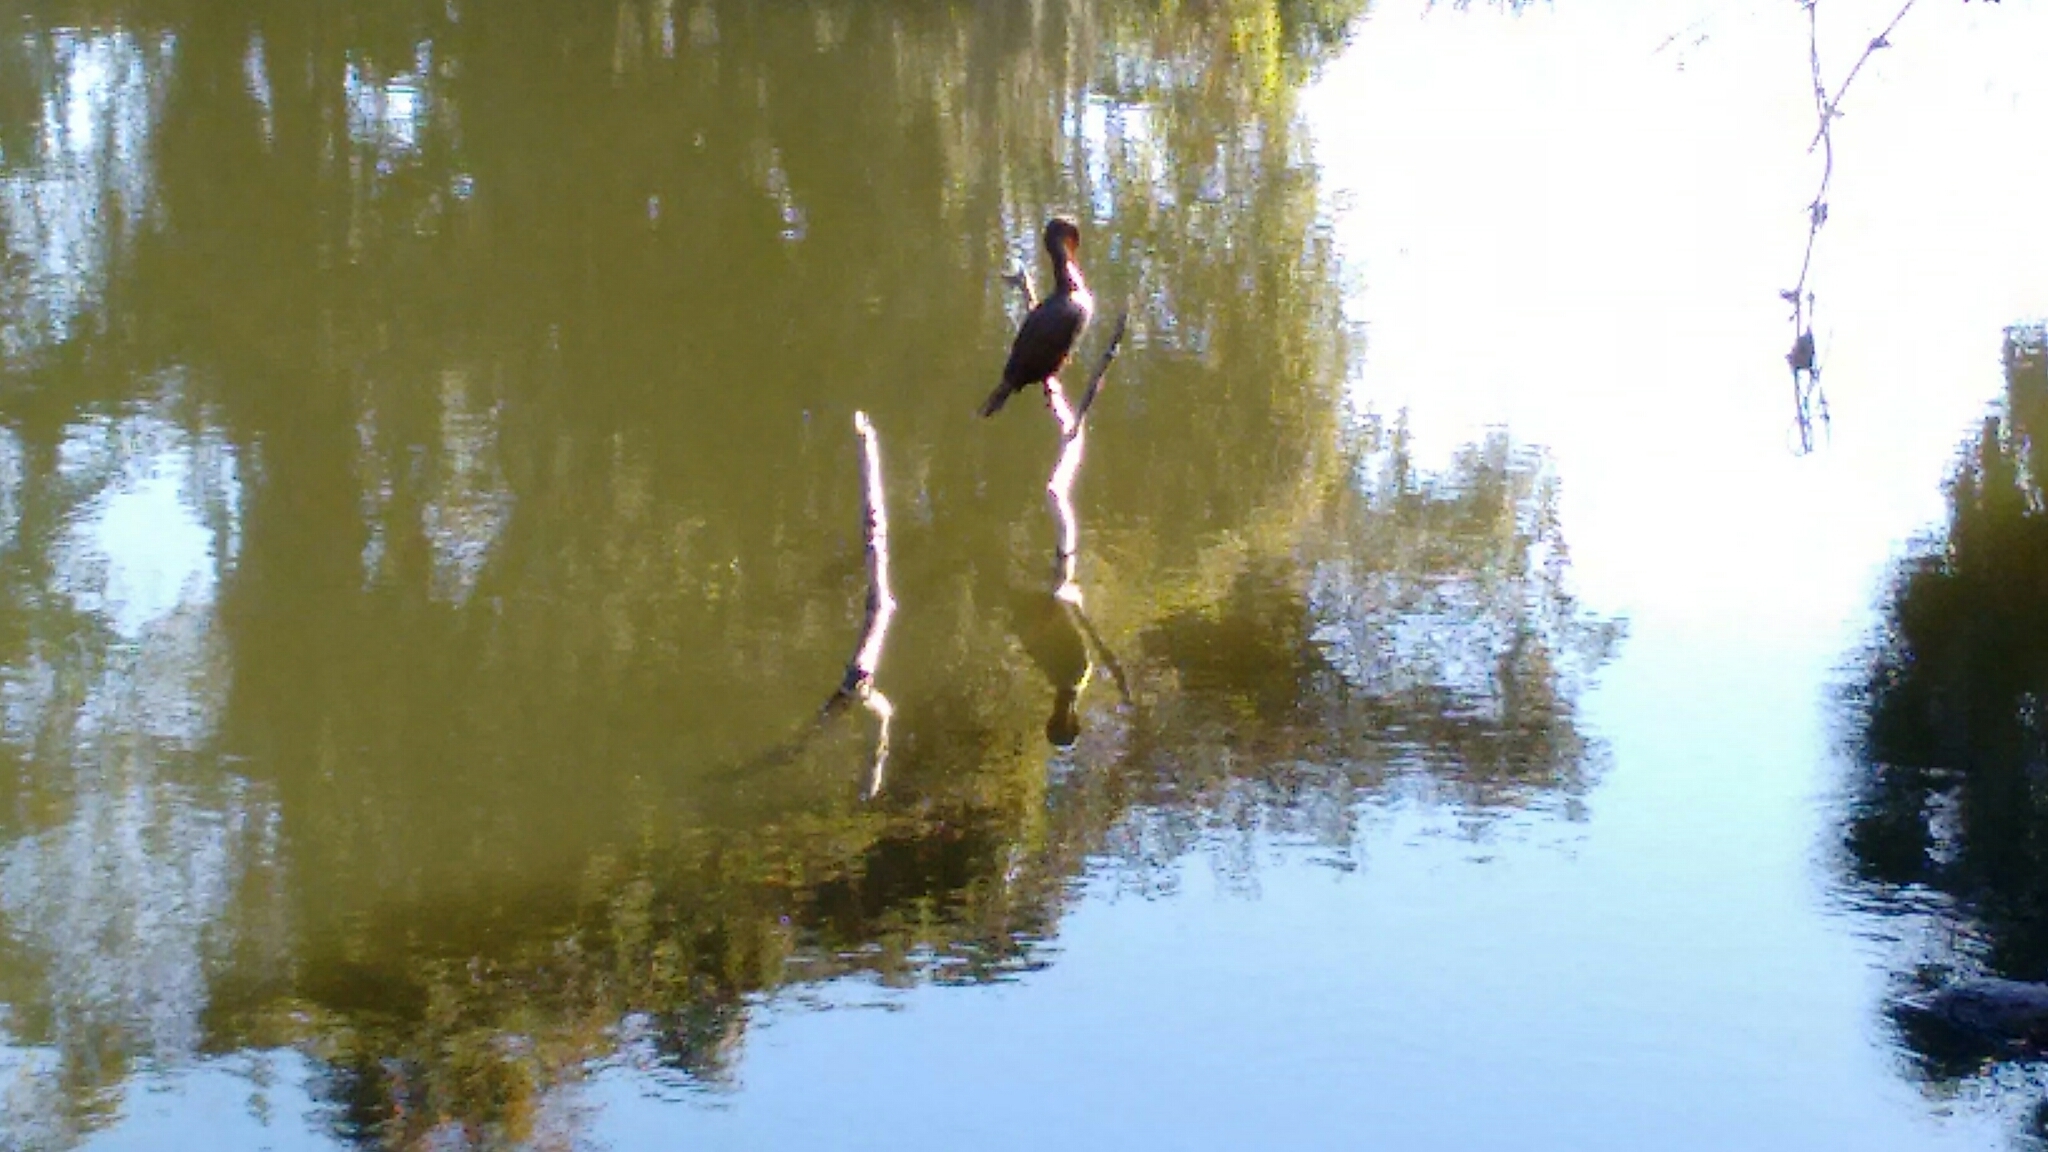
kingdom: Animalia
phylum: Chordata
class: Aves
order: Suliformes
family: Phalacrocoracidae
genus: Phalacrocorax
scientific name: Phalacrocorax auritus
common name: Double-crested cormorant
